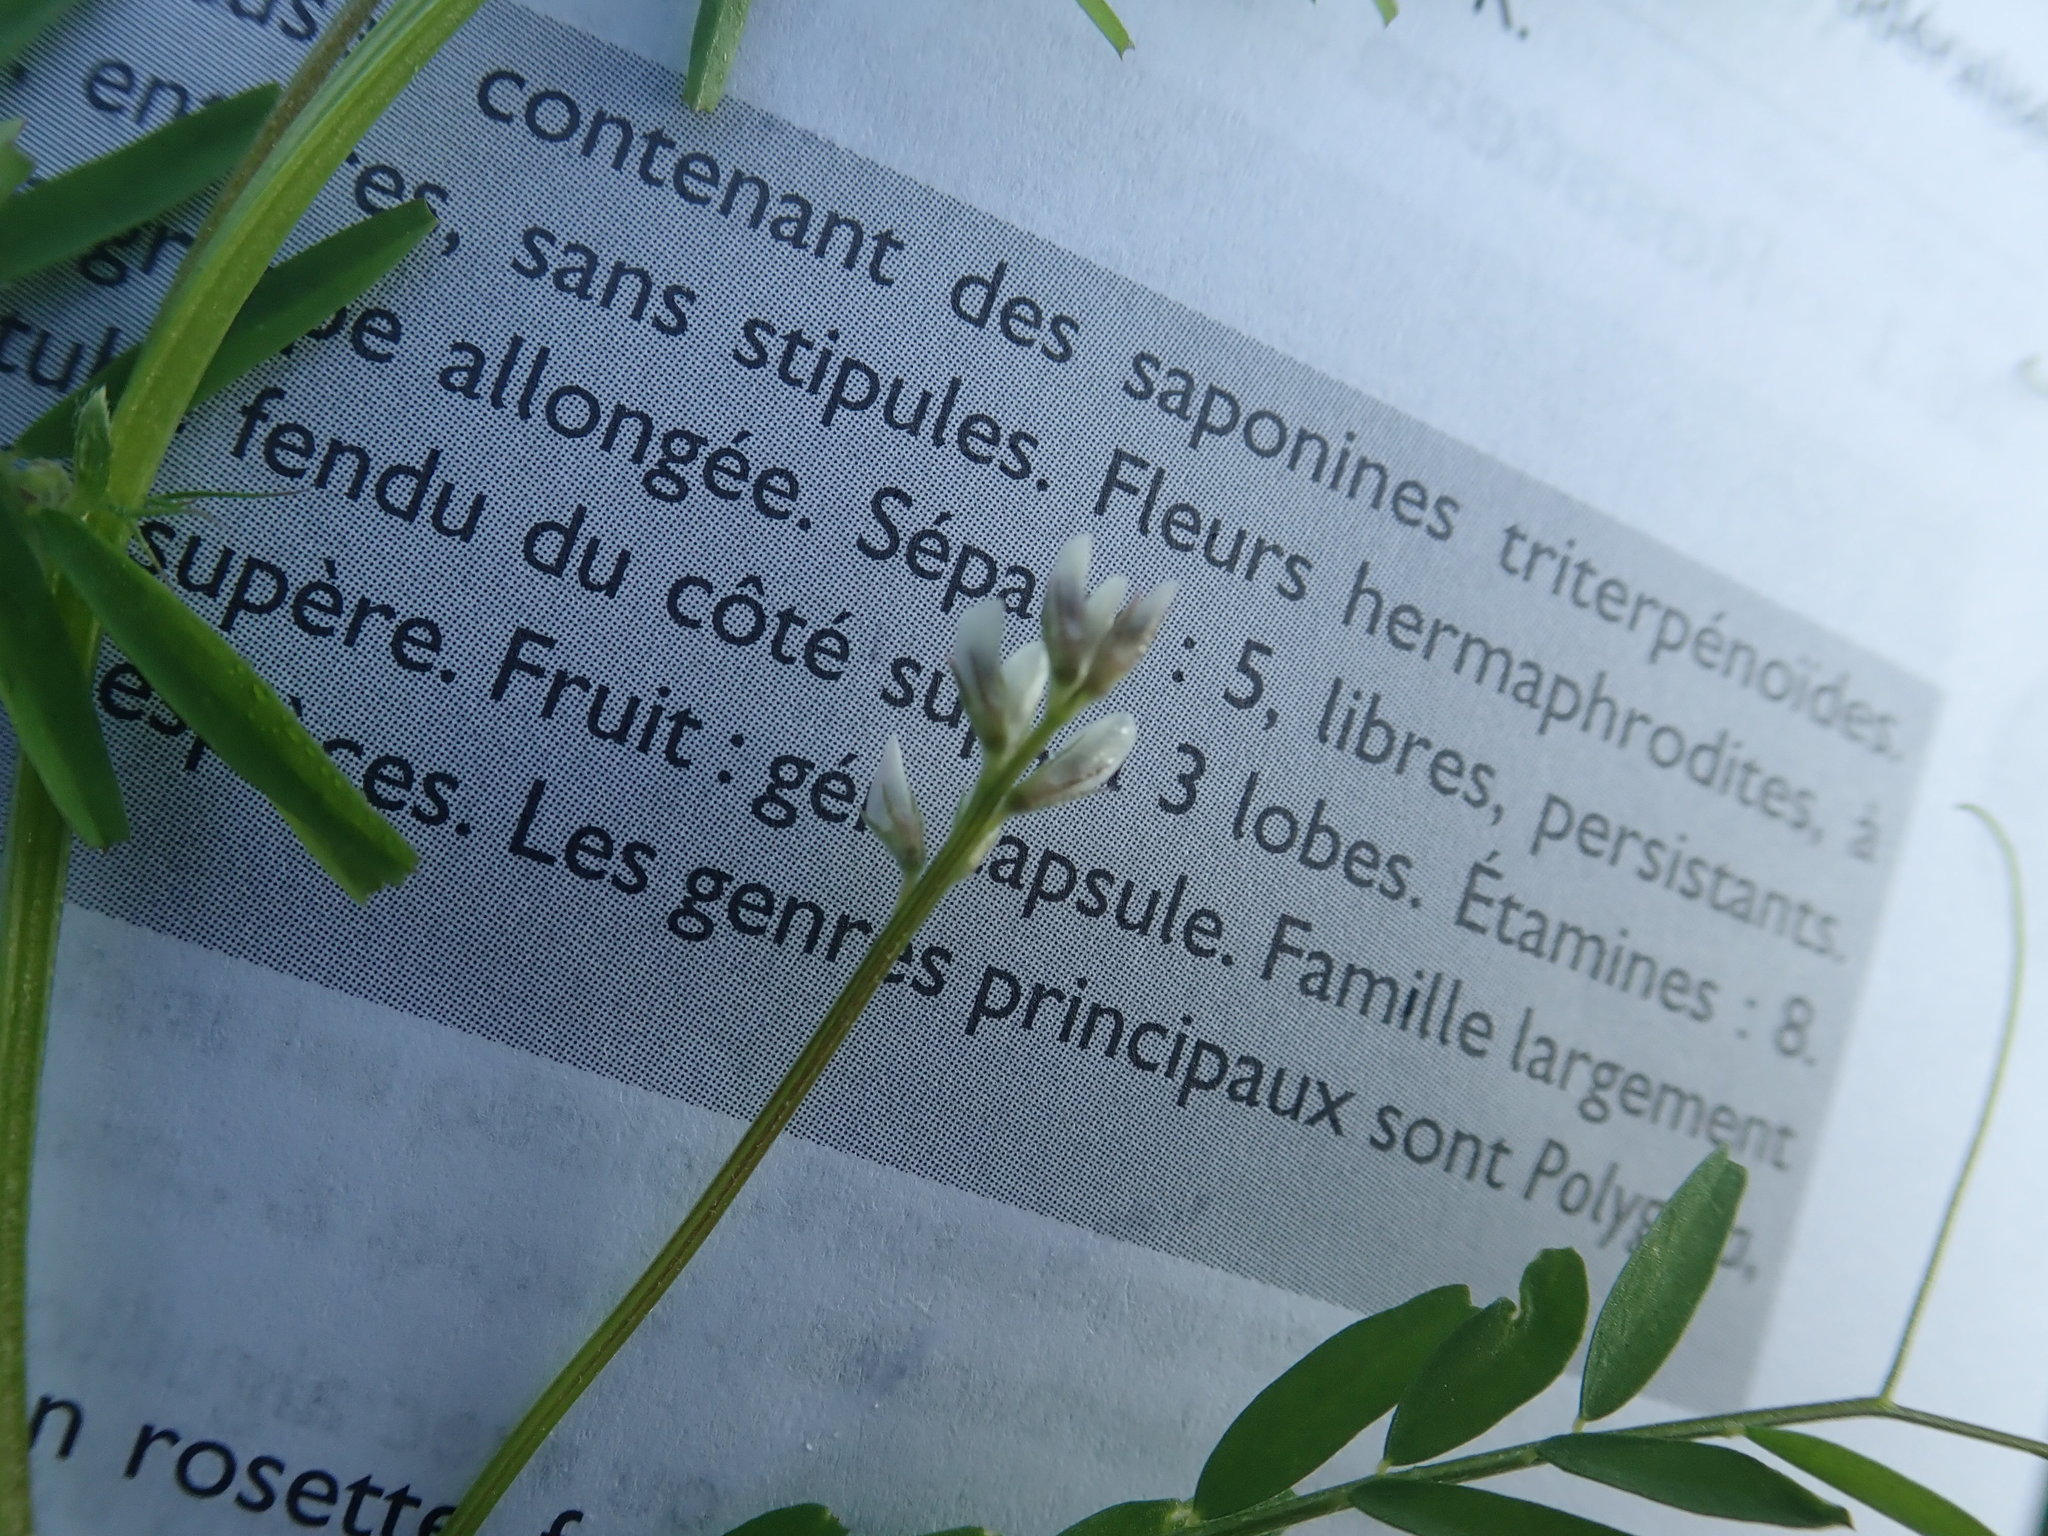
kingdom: Plantae
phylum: Tracheophyta
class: Magnoliopsida
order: Fabales
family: Fabaceae
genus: Vicia
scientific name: Vicia hirsuta
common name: Tiny vetch
